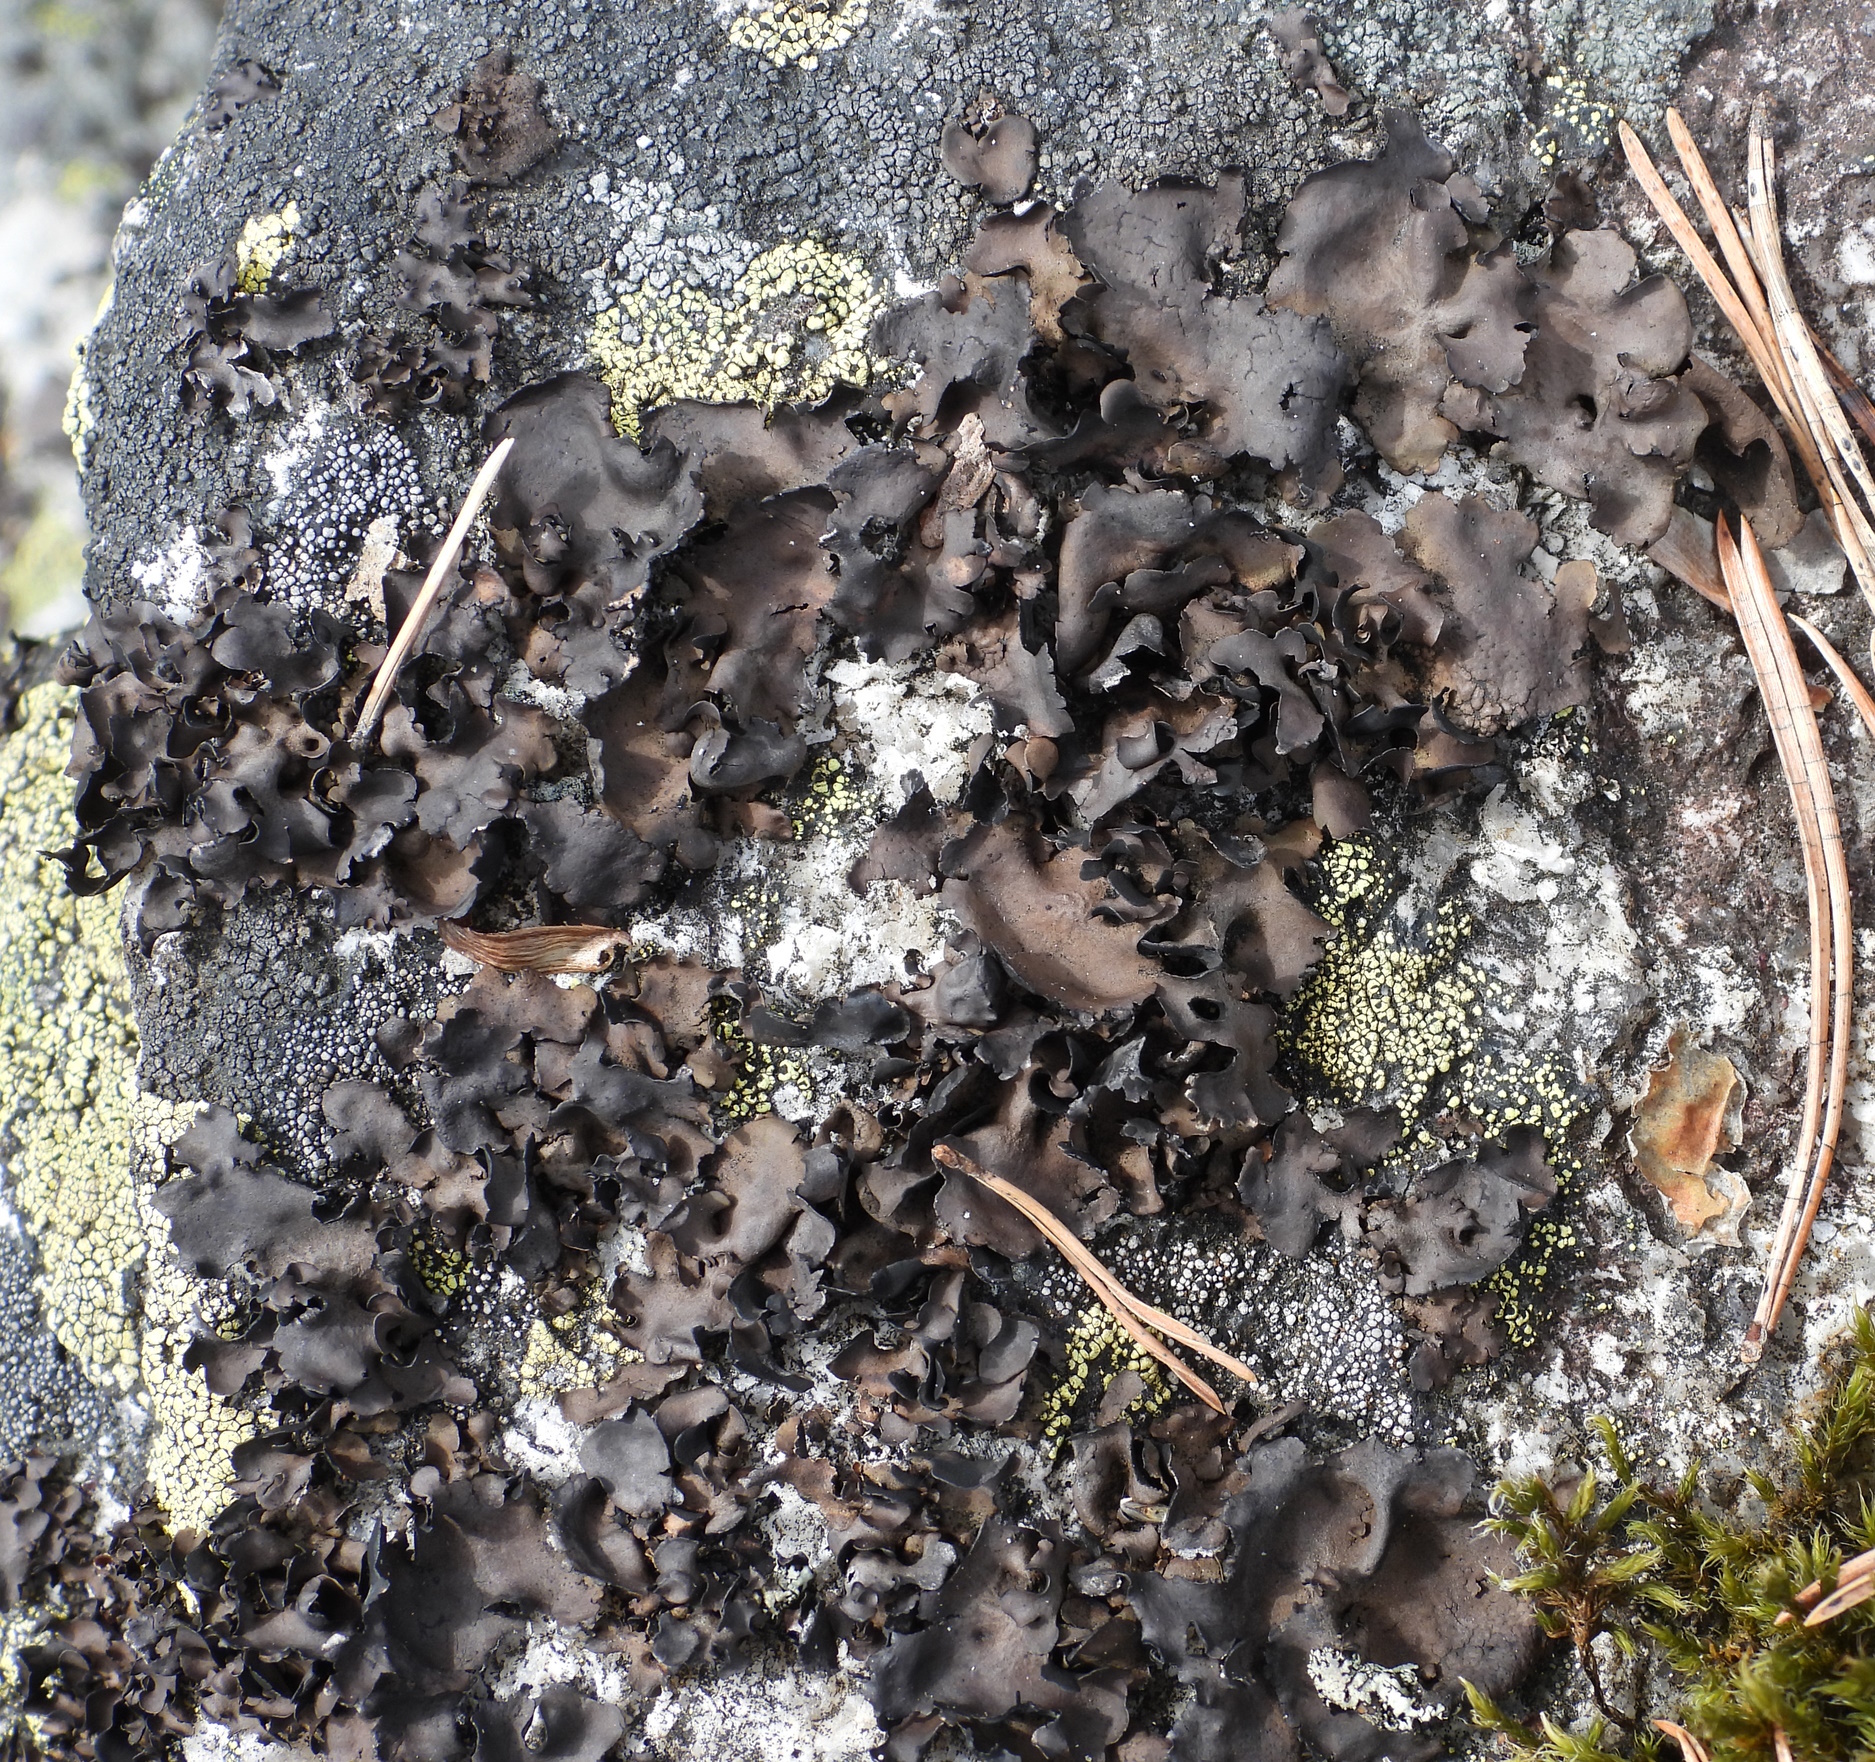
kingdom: Fungi
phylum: Ascomycota
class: Lecanoromycetes
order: Umbilicariales
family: Umbilicariaceae
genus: Umbilicaria
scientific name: Umbilicaria polyphylla
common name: Petalled rocktripe lichen
